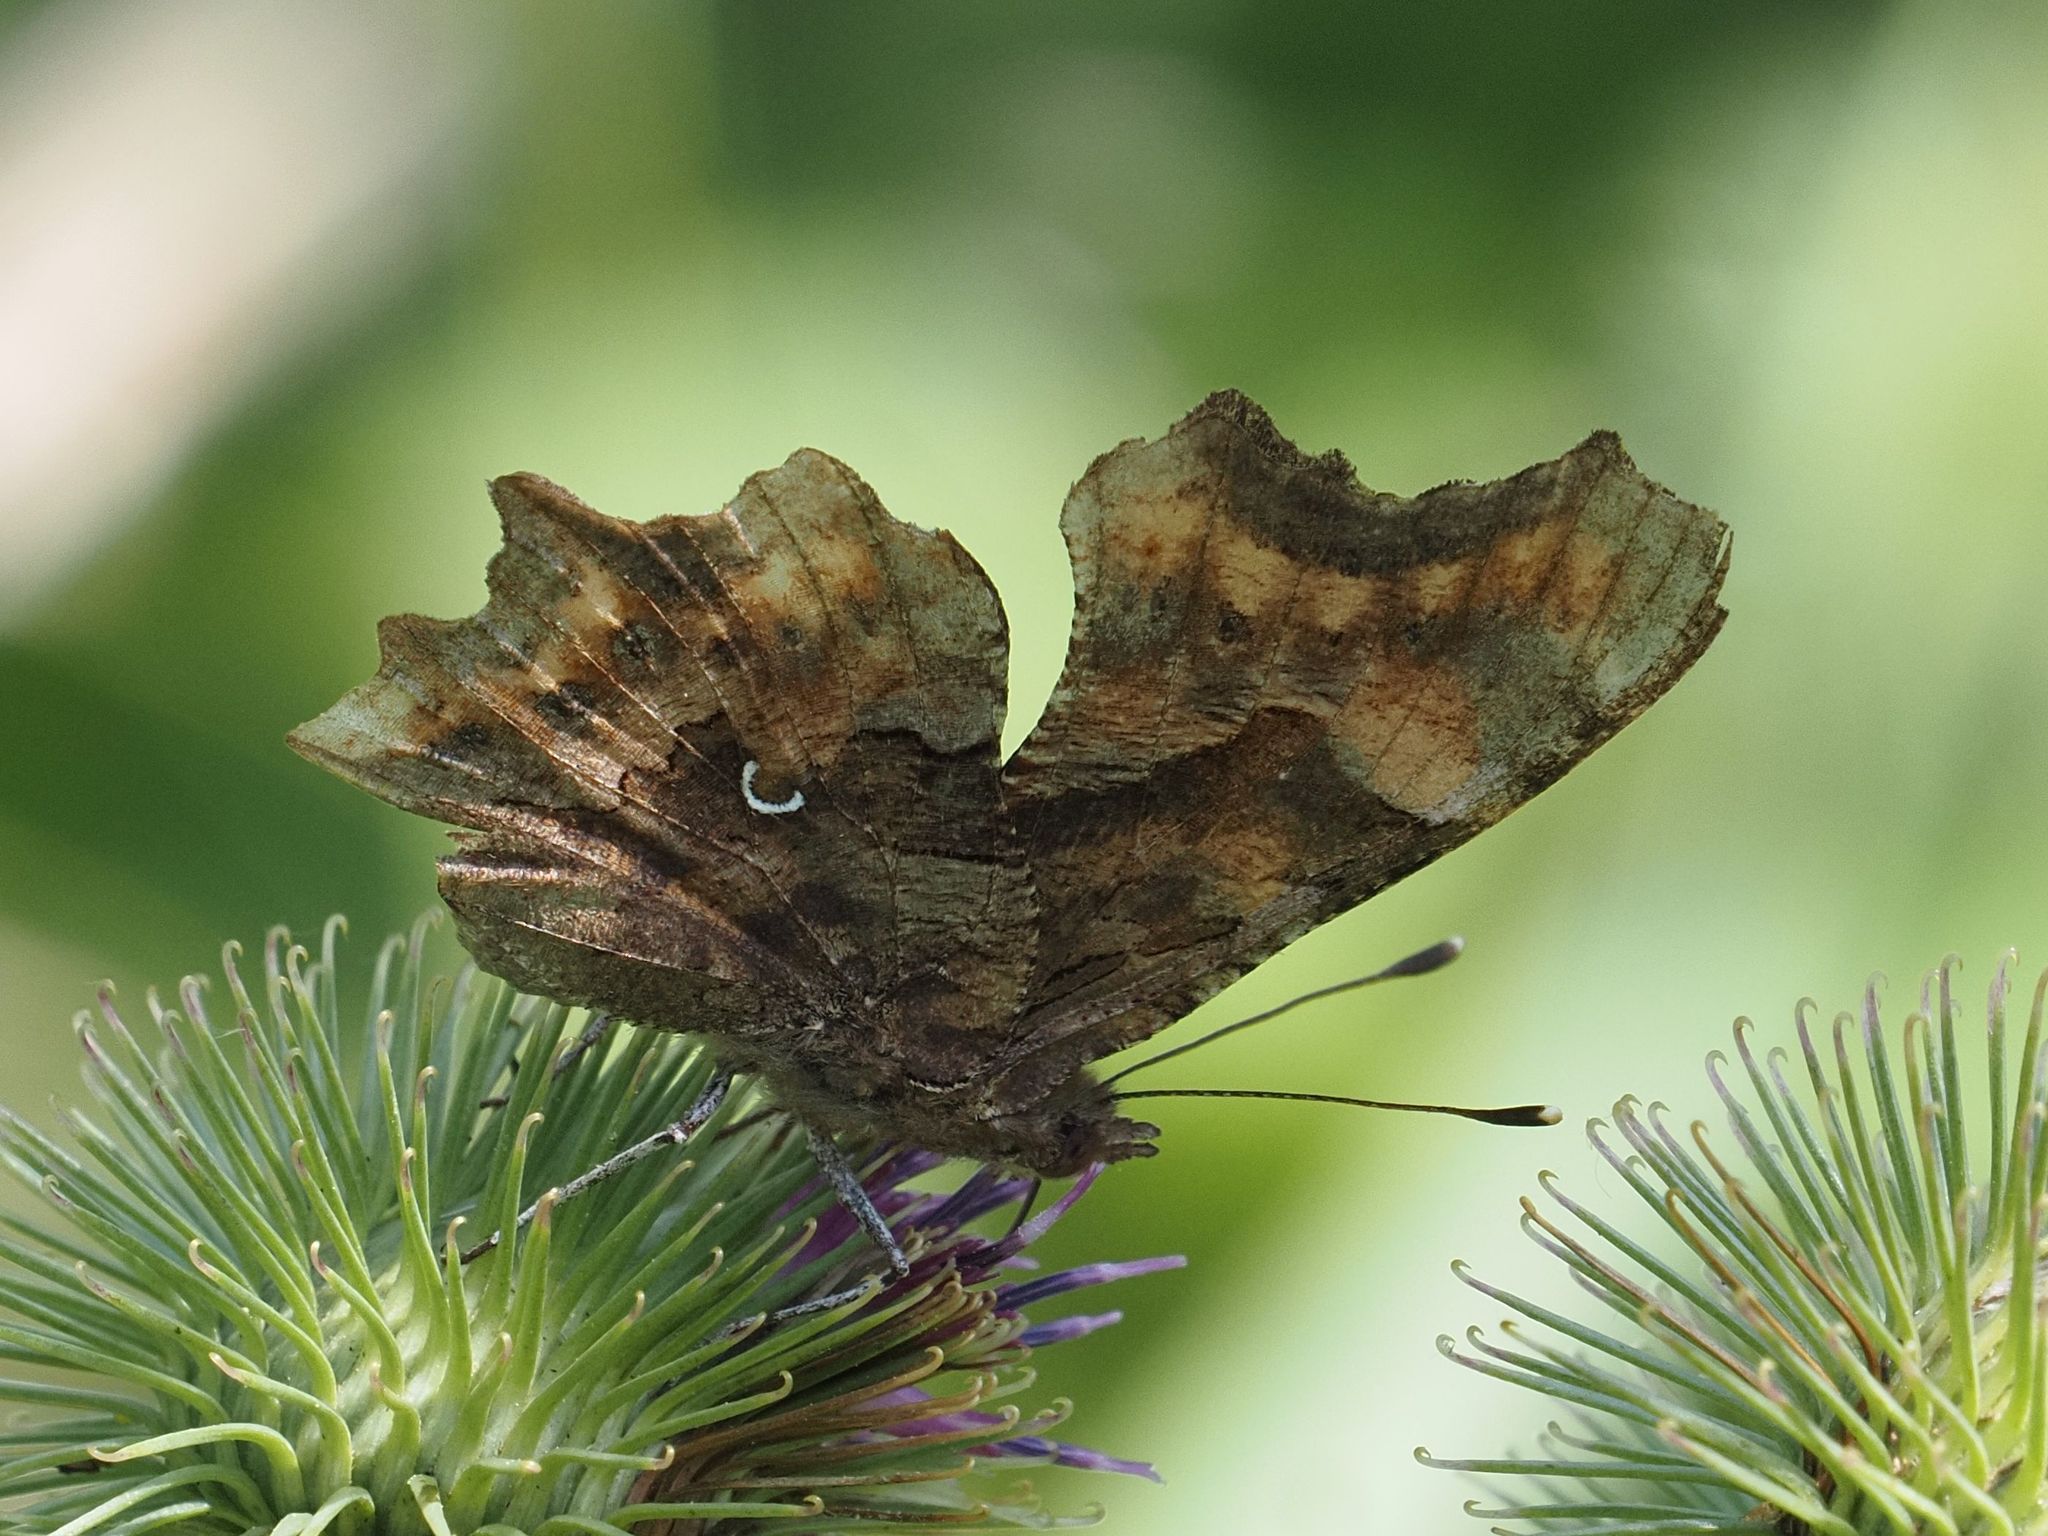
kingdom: Animalia
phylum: Arthropoda
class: Insecta
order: Lepidoptera
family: Nymphalidae
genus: Polygonia
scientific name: Polygonia c-album
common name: Comma
